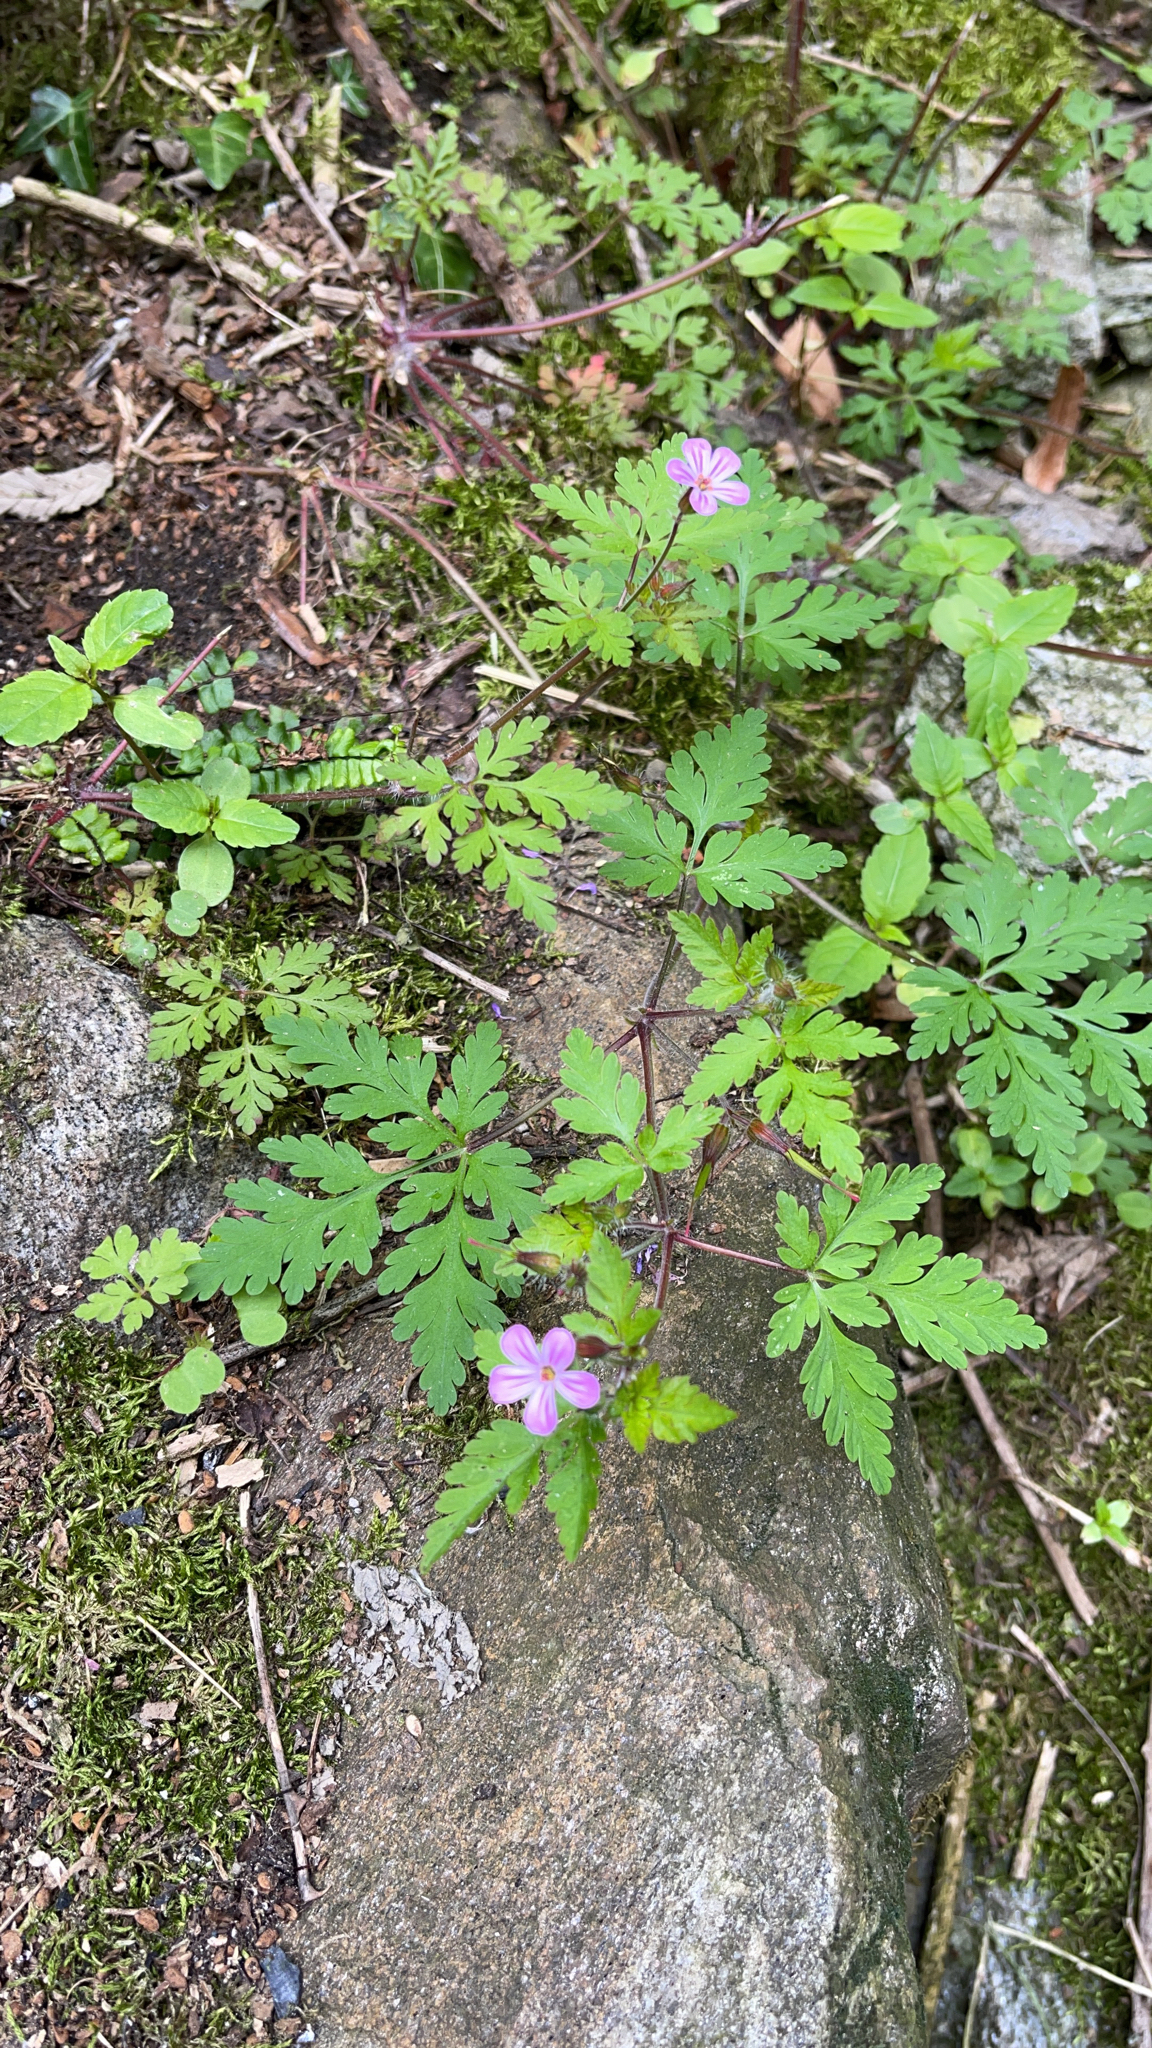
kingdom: Plantae
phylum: Tracheophyta
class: Magnoliopsida
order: Geraniales
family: Geraniaceae
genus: Geranium
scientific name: Geranium robertianum
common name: Herb-robert
